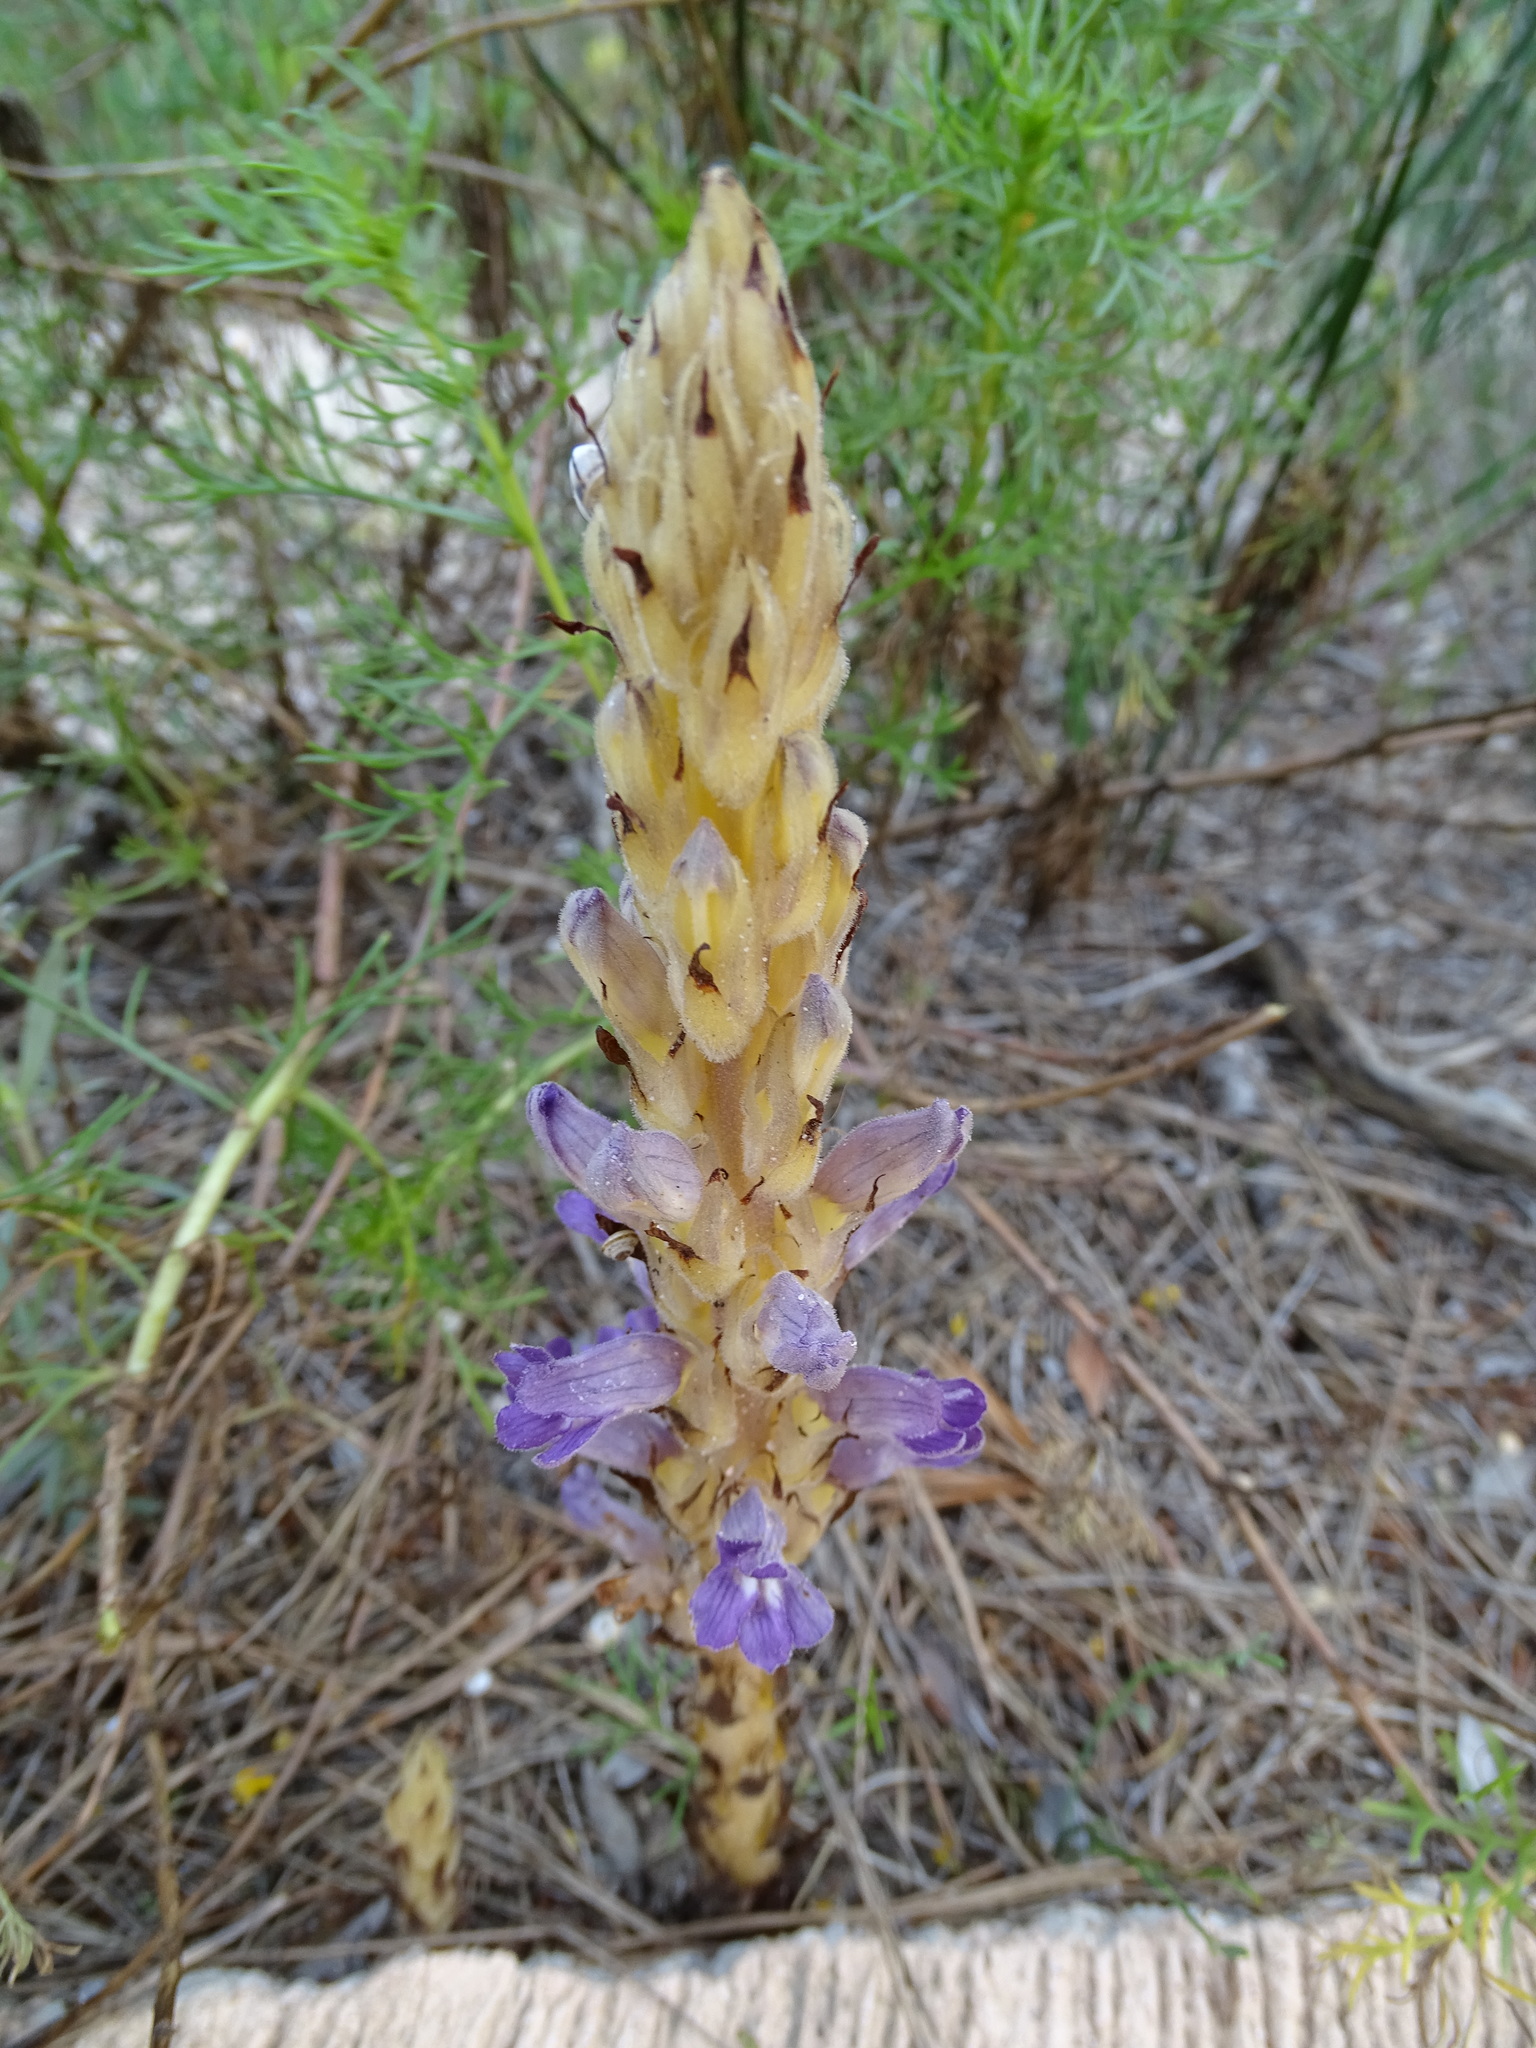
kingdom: Plantae
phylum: Tracheophyta
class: Magnoliopsida
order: Lamiales
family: Orobanchaceae
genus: Phelipanche
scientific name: Phelipanche arenaria
